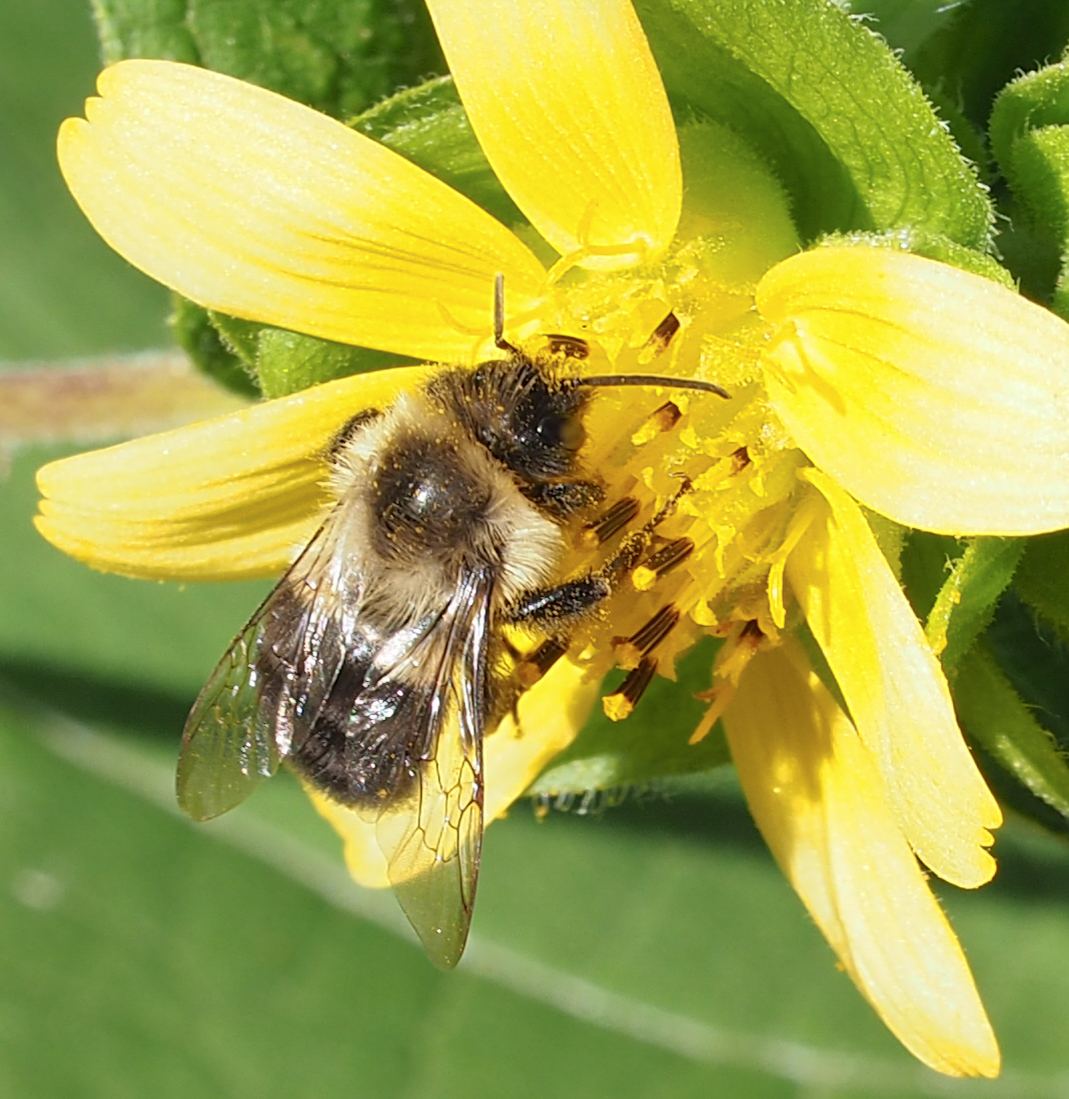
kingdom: Animalia
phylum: Arthropoda
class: Insecta
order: Hymenoptera
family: Apidae
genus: Bombus
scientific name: Bombus impatiens
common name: Common eastern bumble bee
